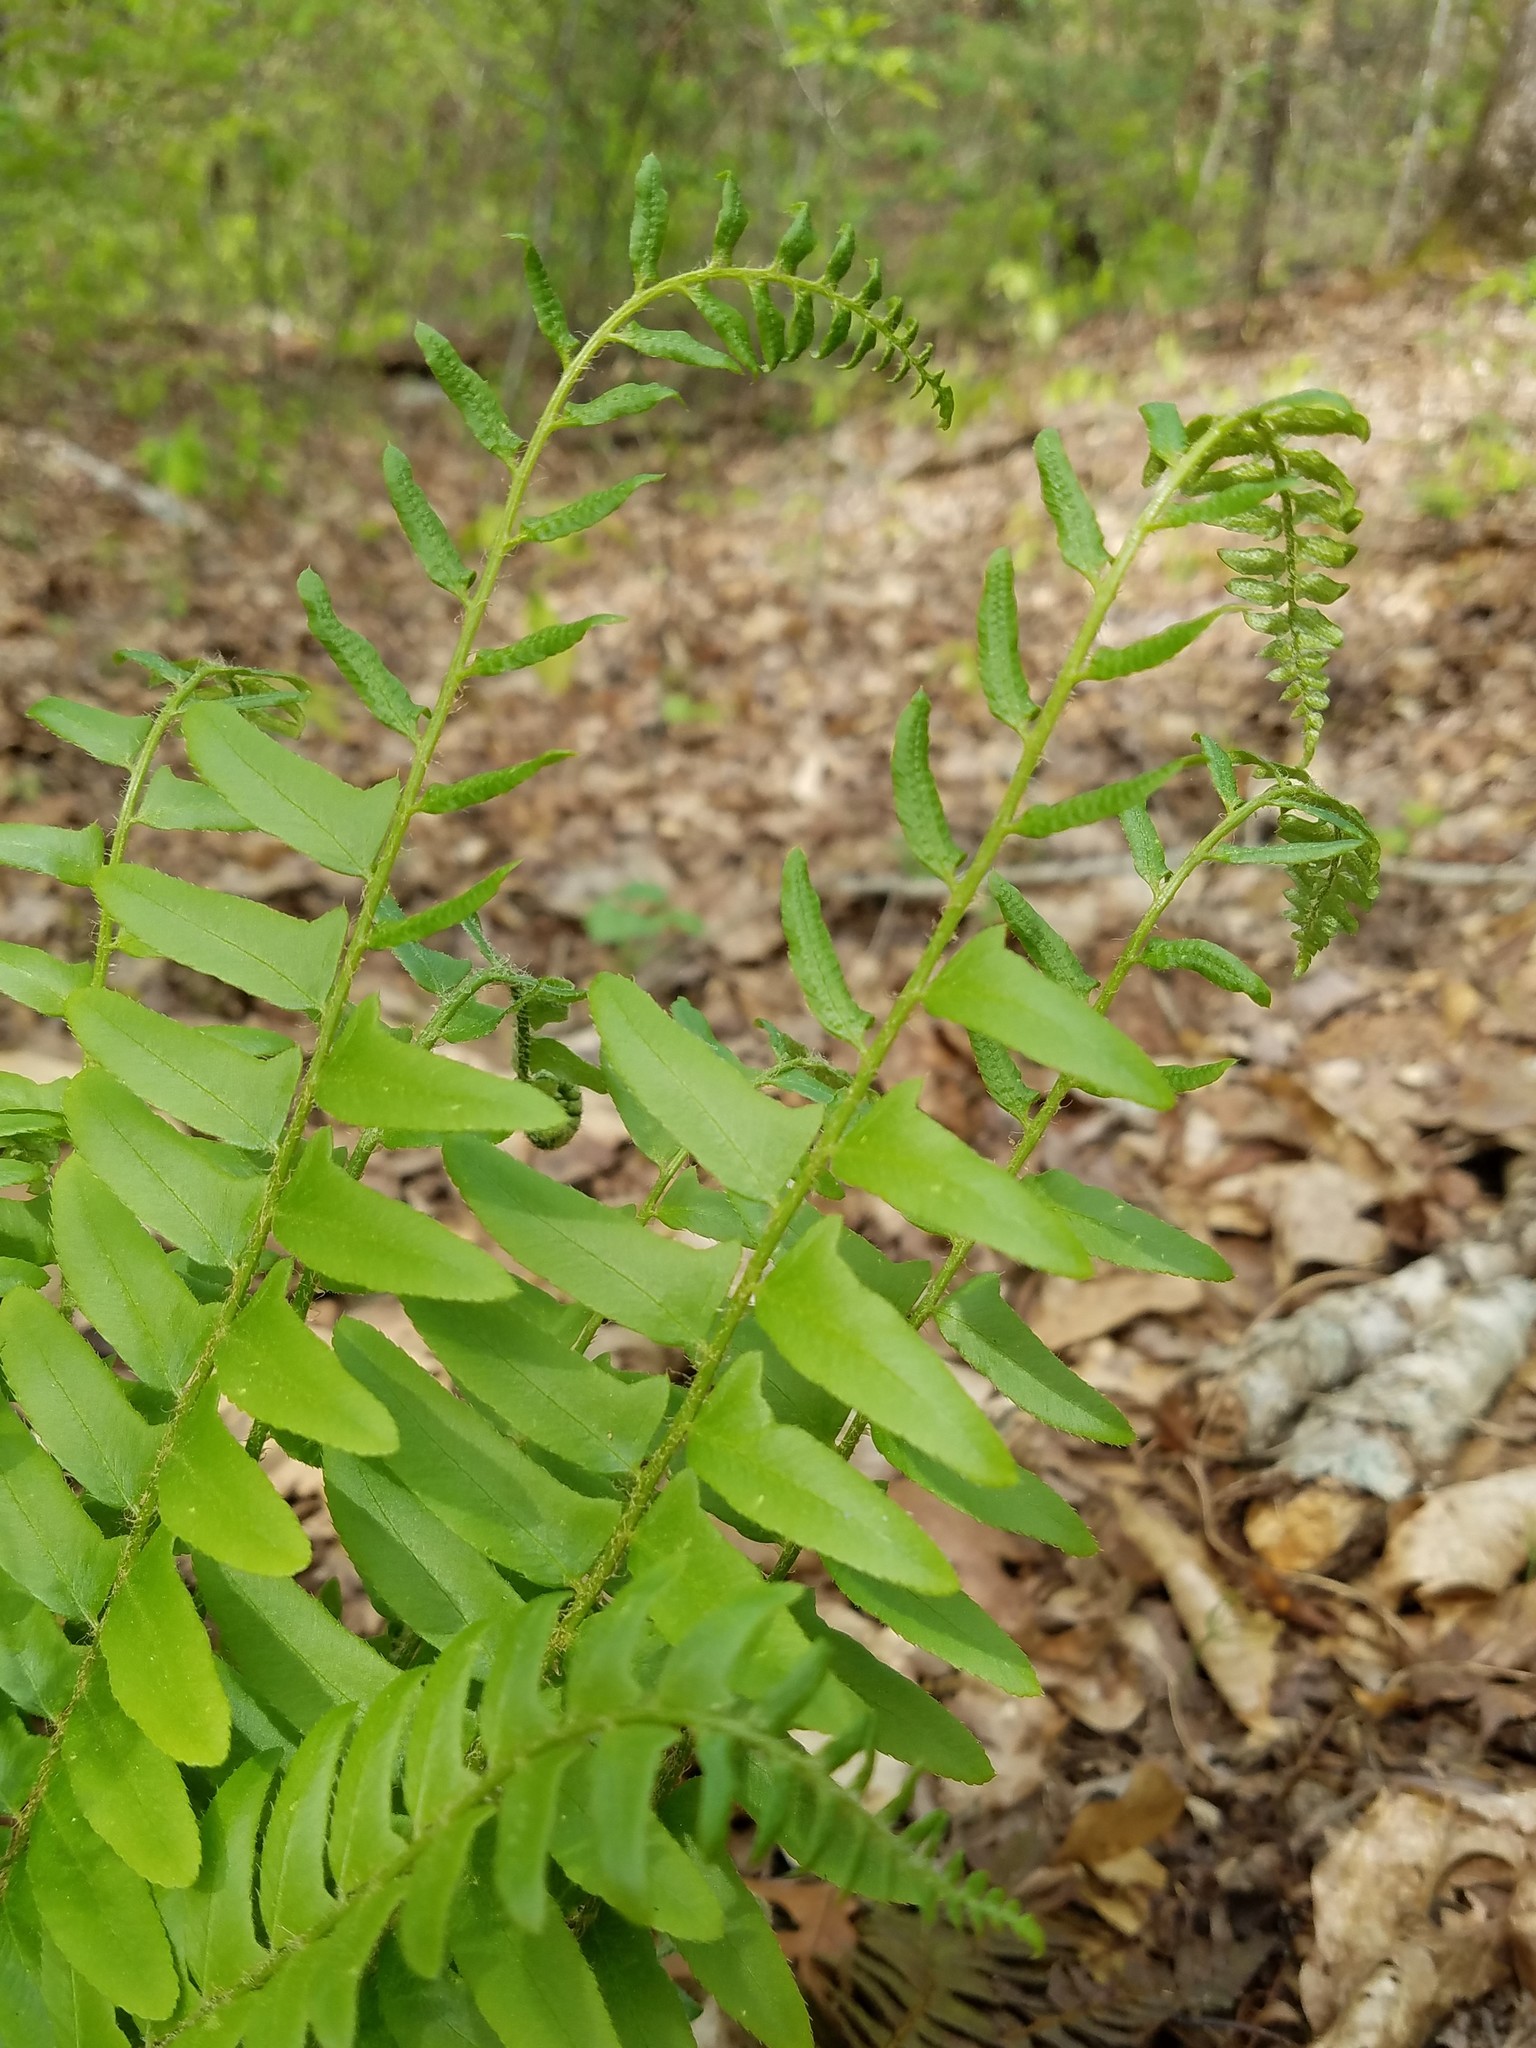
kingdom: Plantae
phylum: Tracheophyta
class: Polypodiopsida
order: Polypodiales
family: Dryopteridaceae
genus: Polystichum
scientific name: Polystichum acrostichoides
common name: Christmas fern
